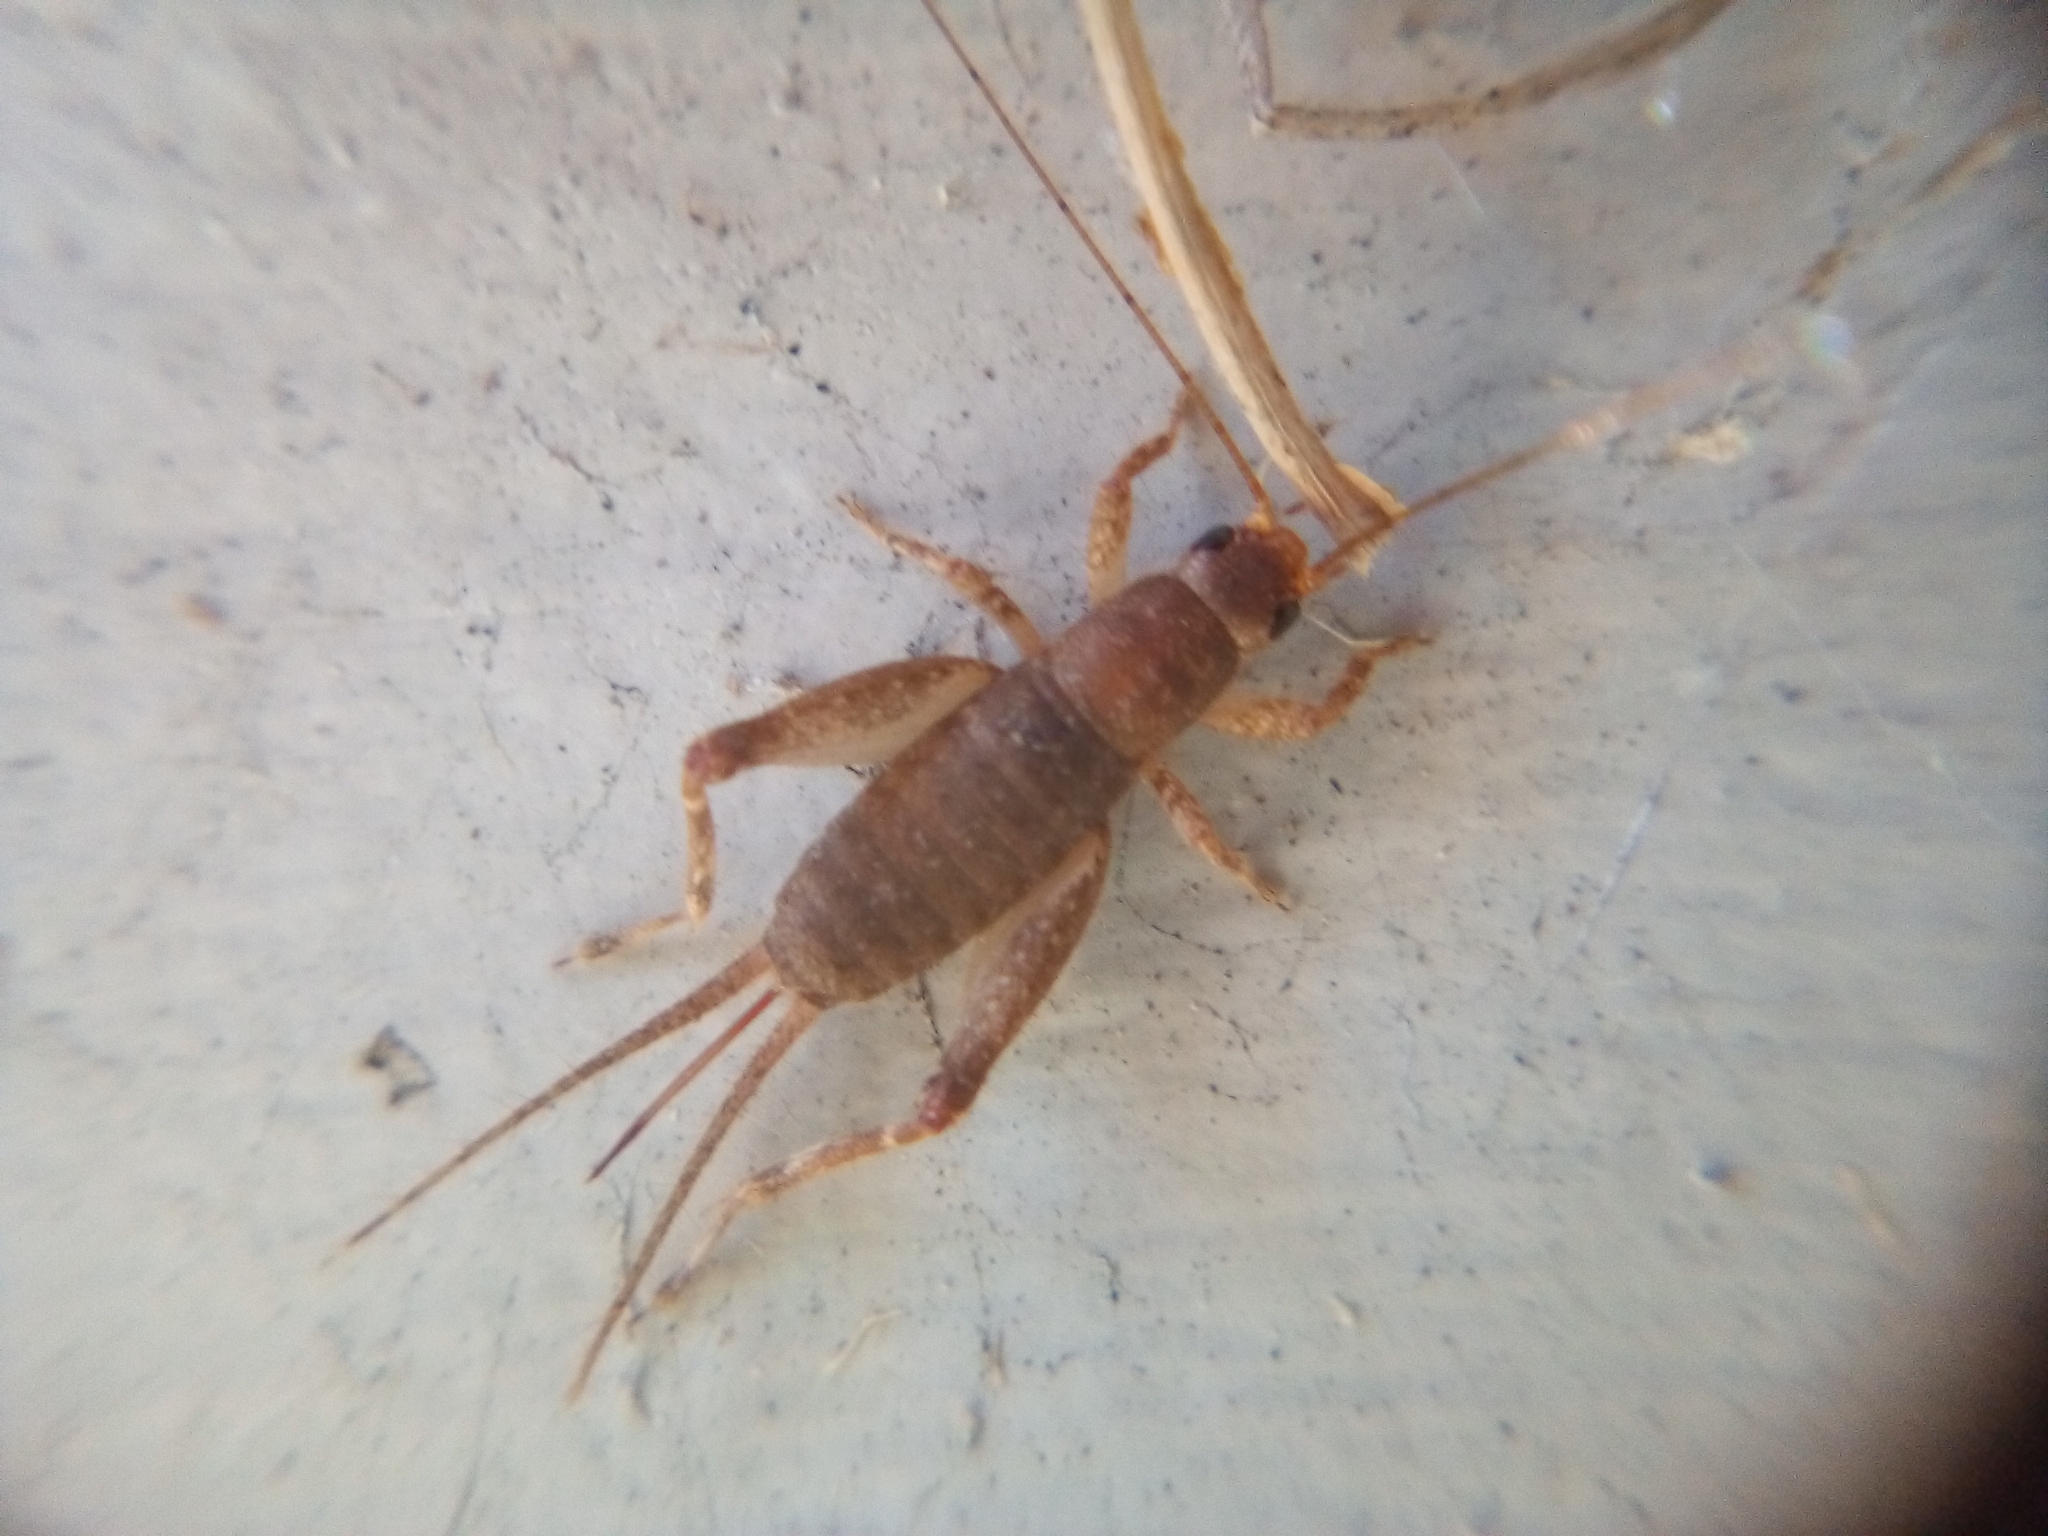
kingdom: Animalia
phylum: Arthropoda
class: Insecta
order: Orthoptera
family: Mogoplistidae
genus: Ornebius
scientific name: Ornebius aperta
